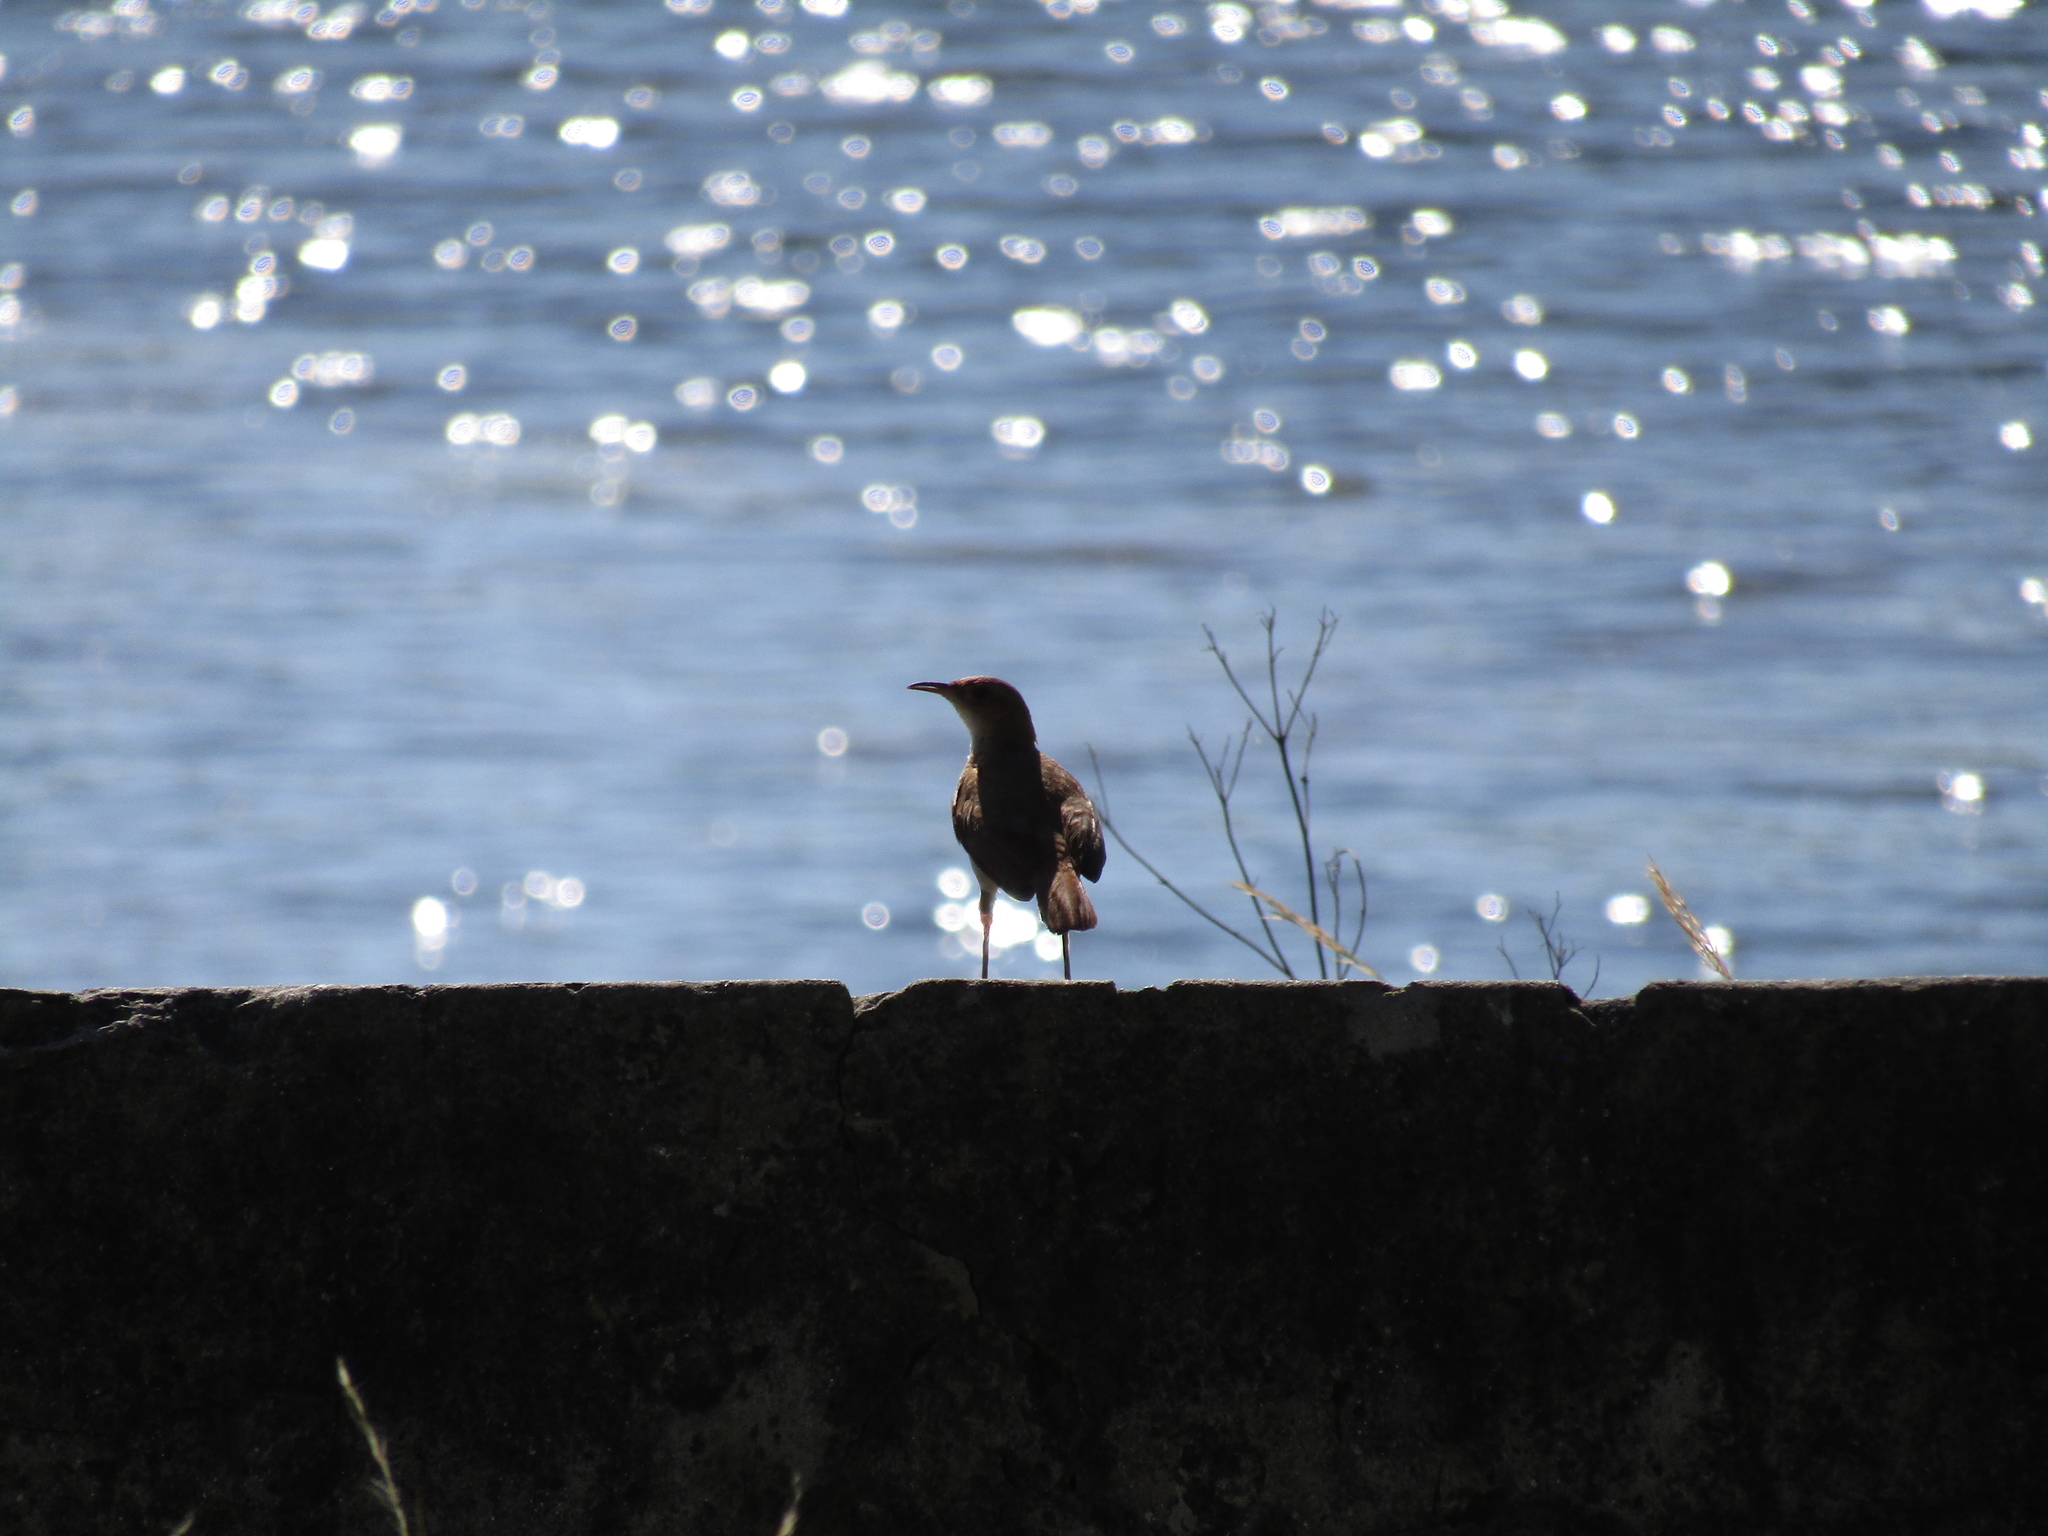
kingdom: Animalia
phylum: Chordata
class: Aves
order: Passeriformes
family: Furnariidae
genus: Furnarius
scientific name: Furnarius rufus
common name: Rufous hornero
